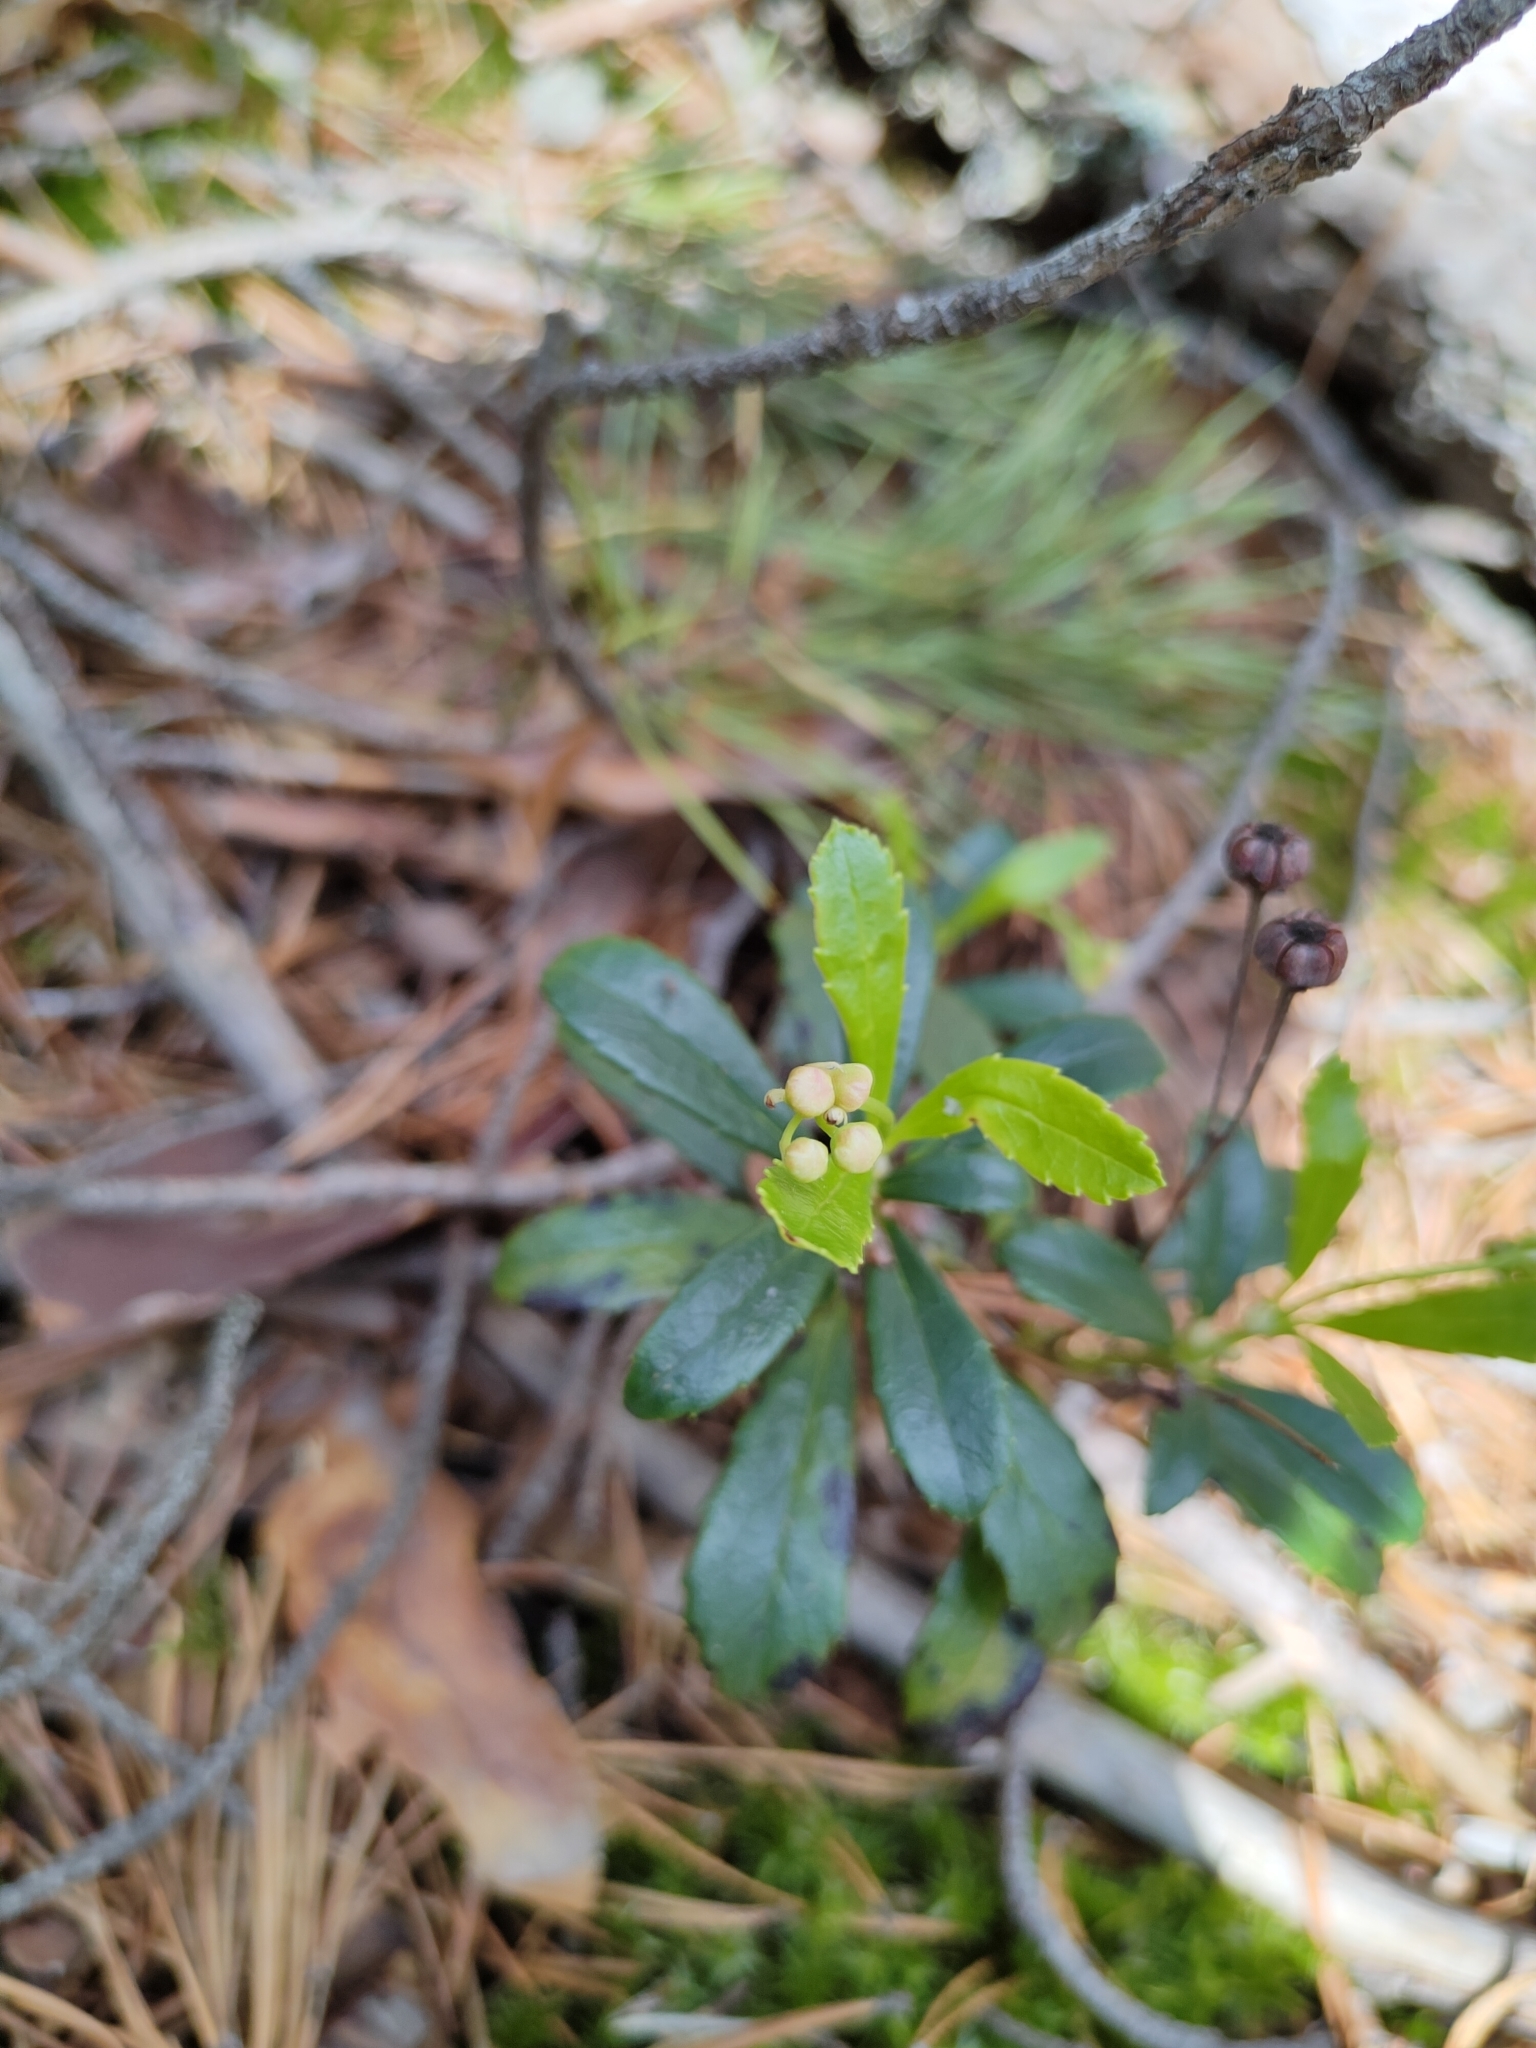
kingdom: Plantae
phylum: Tracheophyta
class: Magnoliopsida
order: Ericales
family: Ericaceae
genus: Chimaphila
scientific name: Chimaphila umbellata
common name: Pipsissewa
